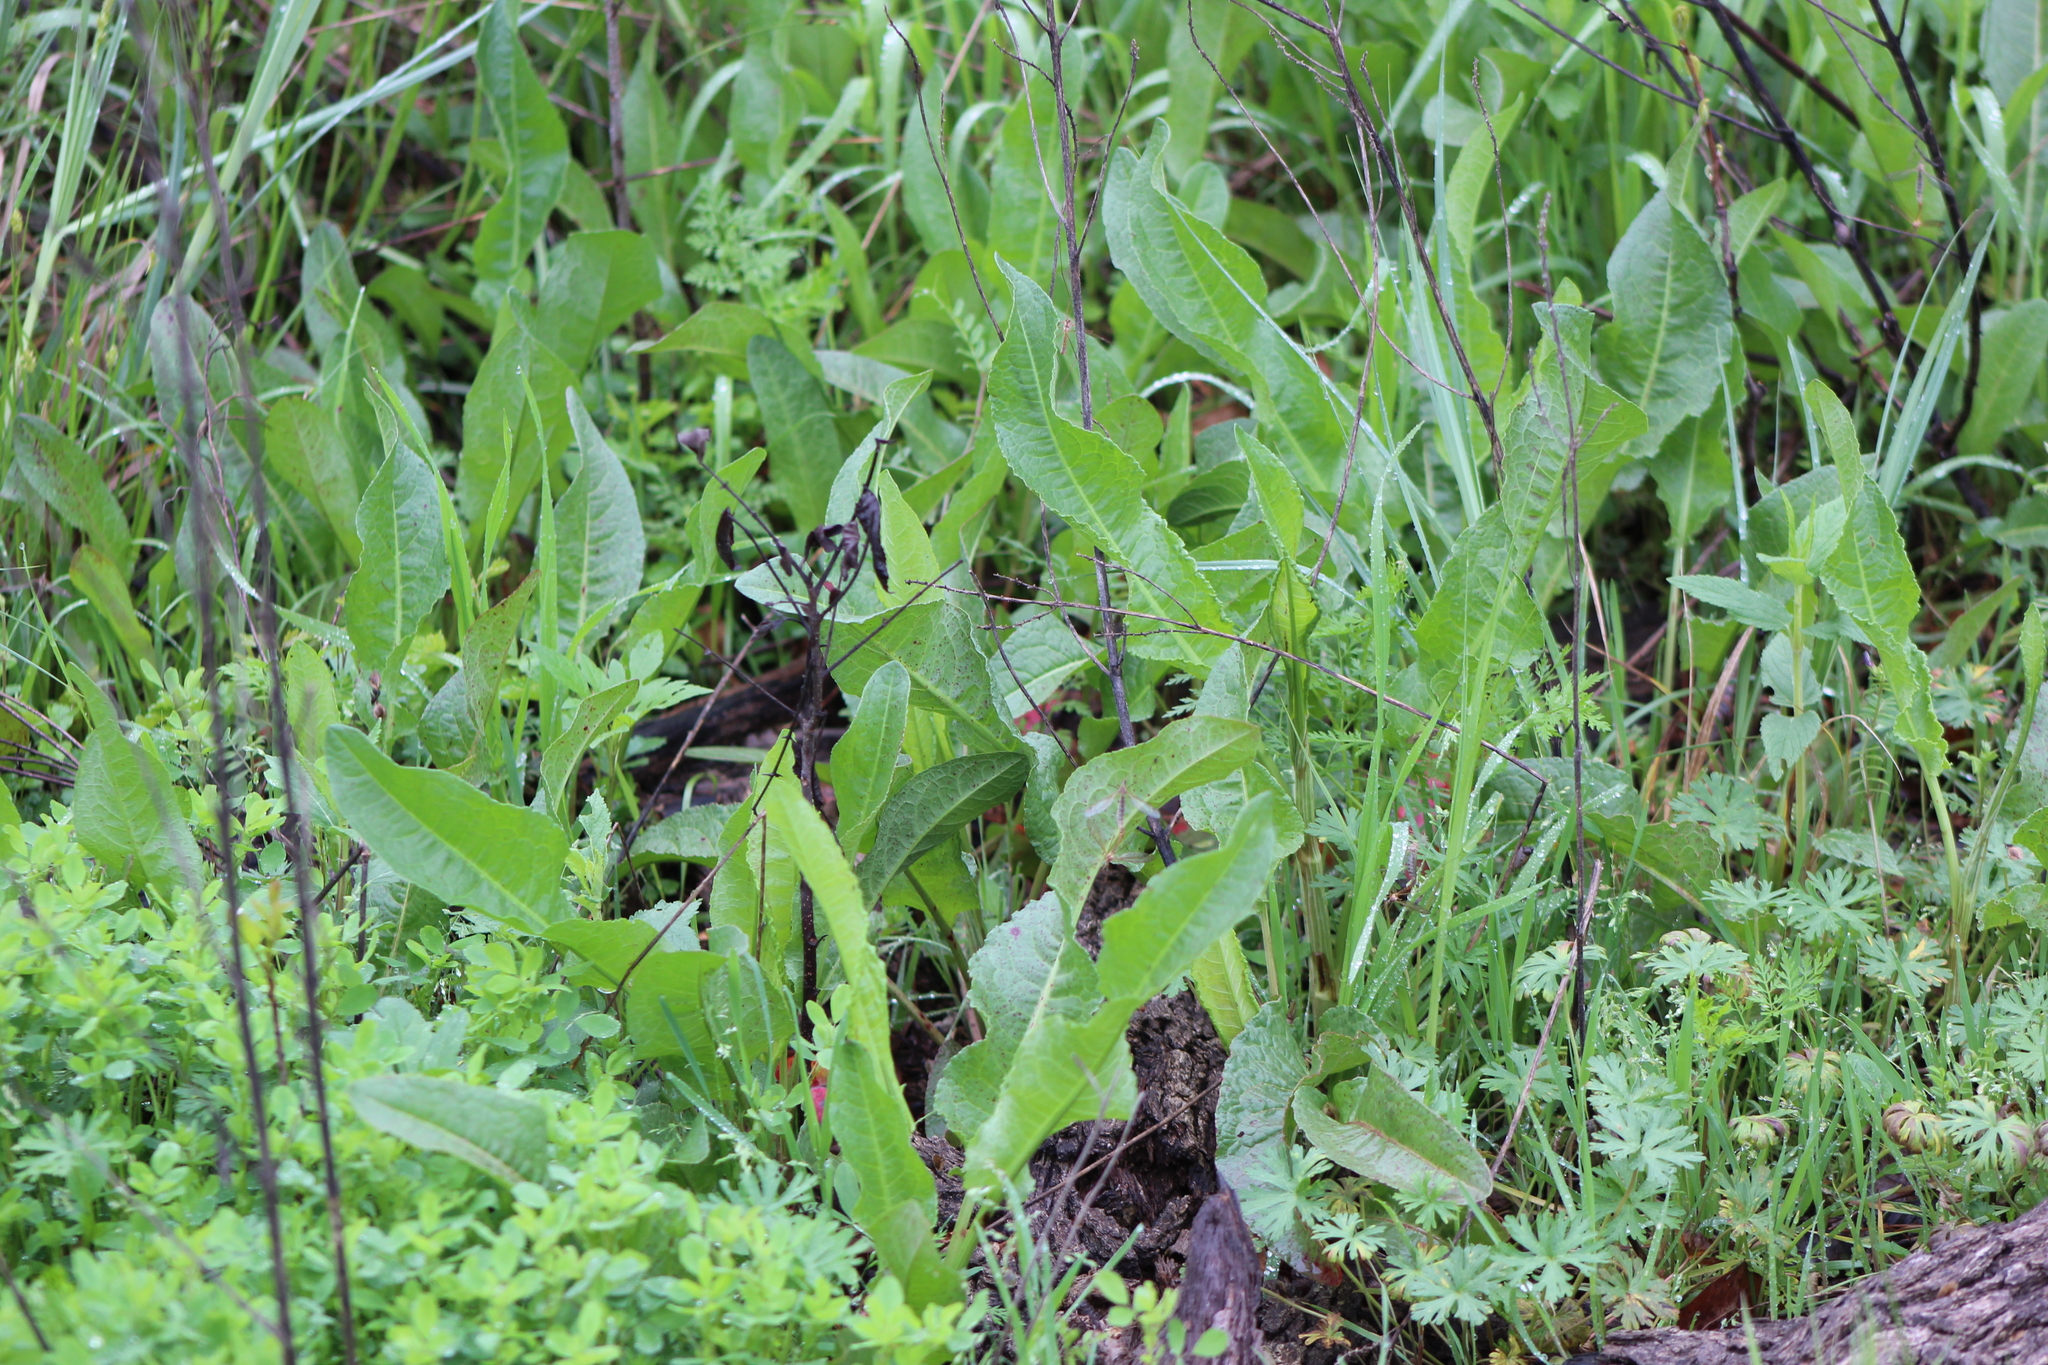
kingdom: Plantae
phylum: Tracheophyta
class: Magnoliopsida
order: Caryophyllales
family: Polygonaceae
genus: Rumex
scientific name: Rumex crispus
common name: Curled dock
